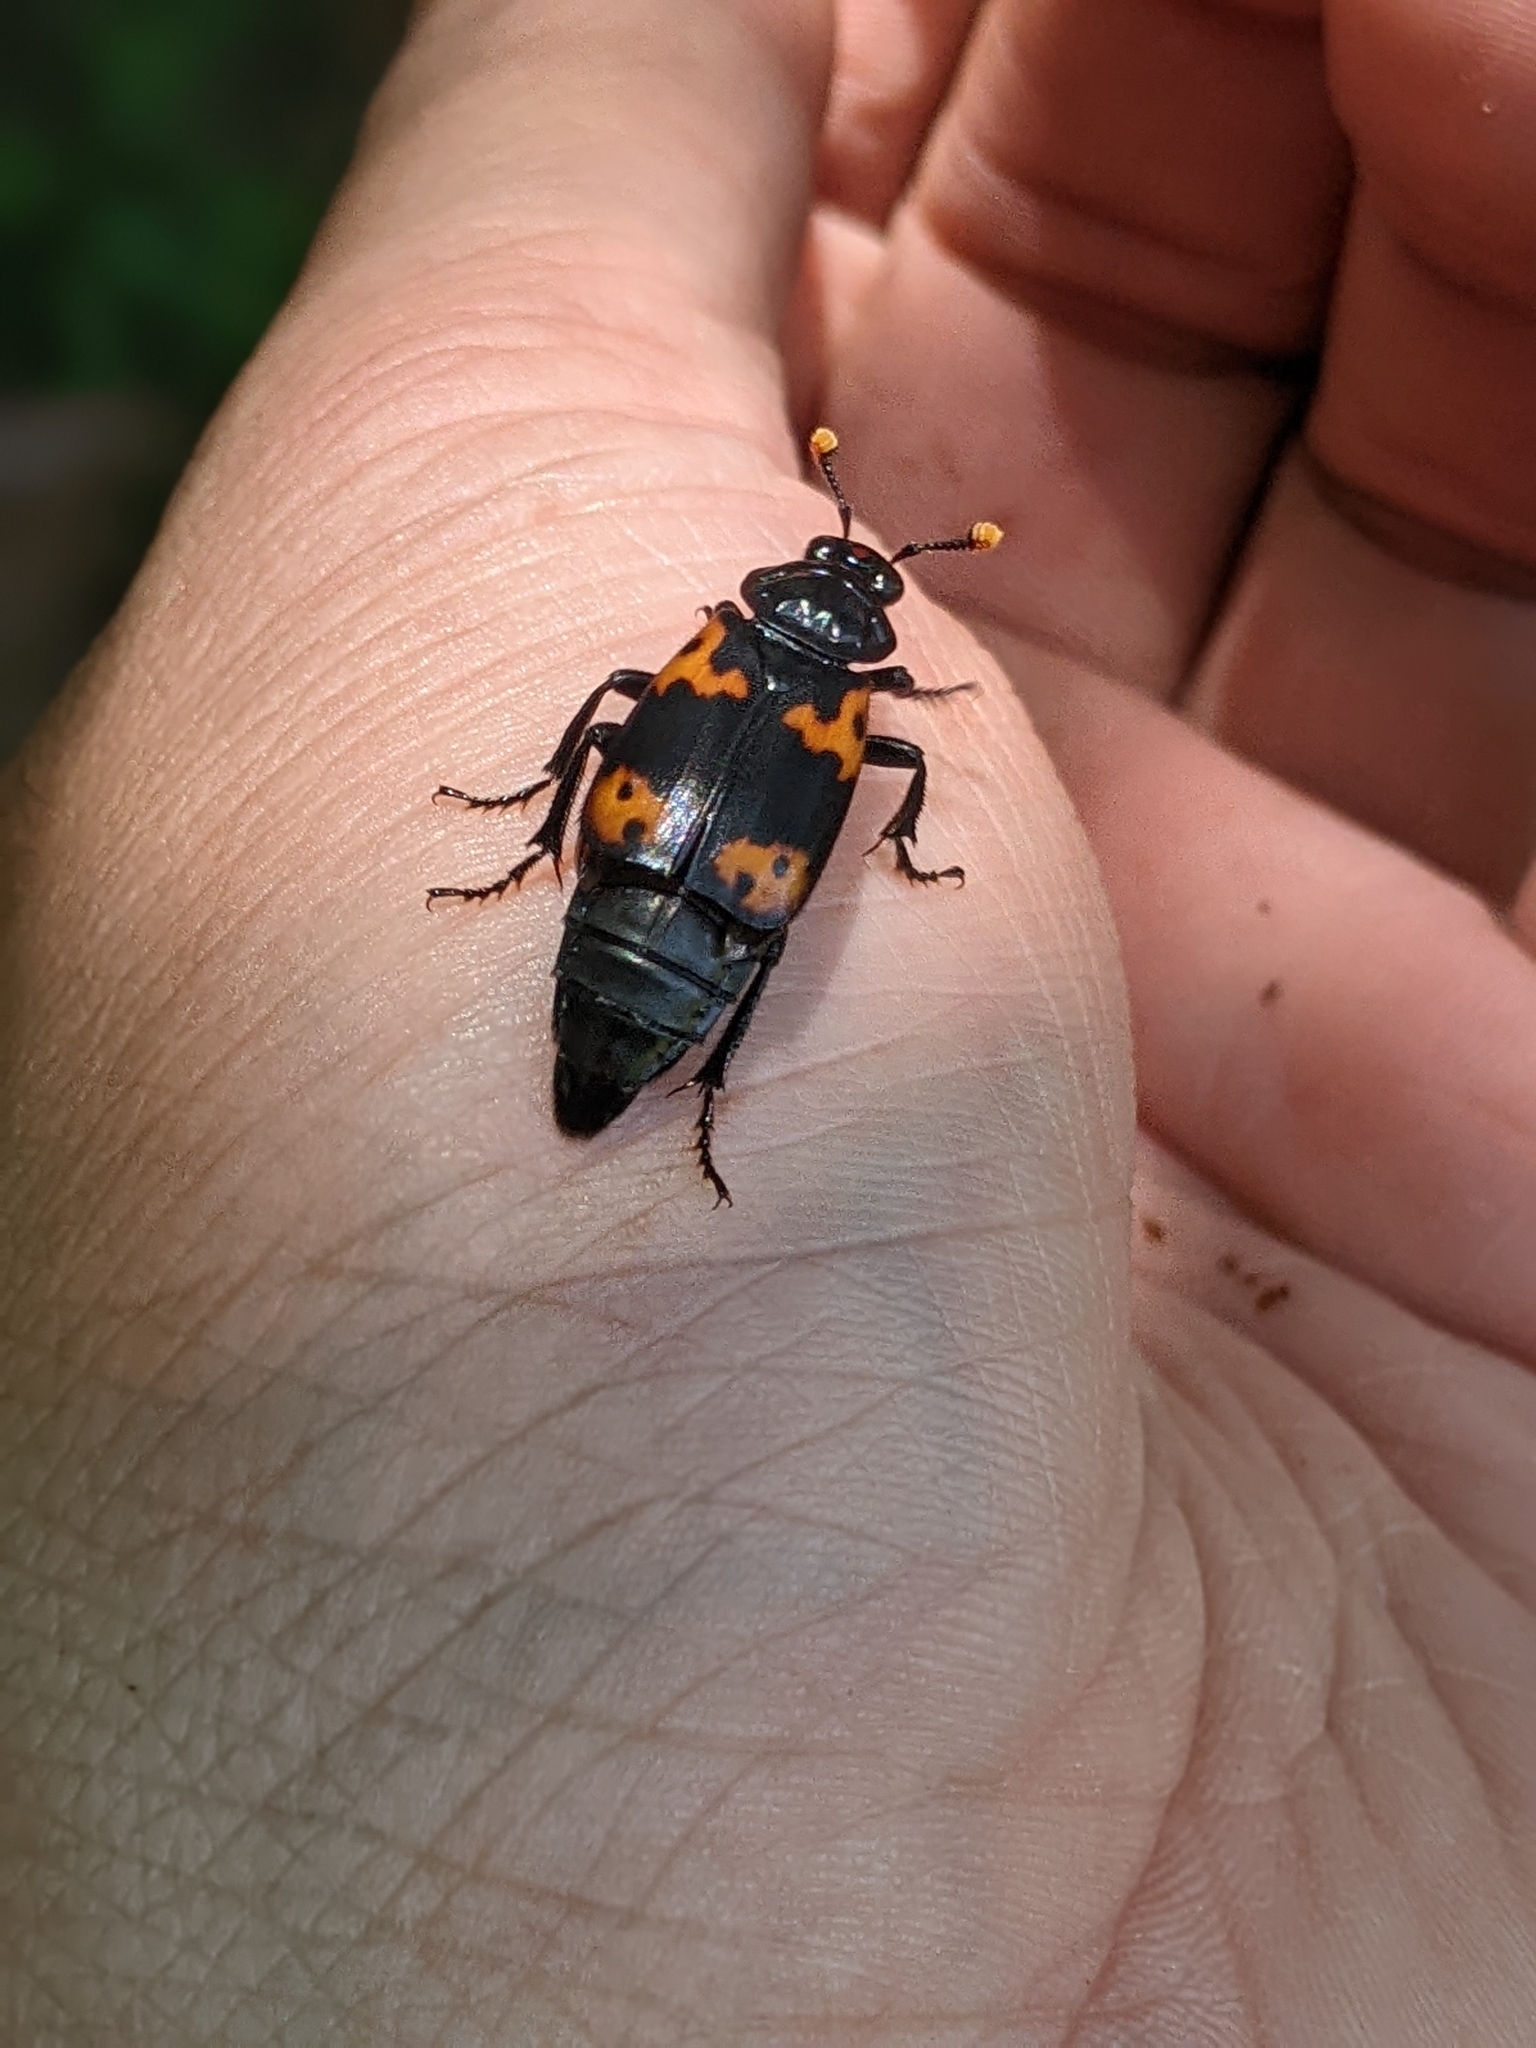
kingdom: Animalia
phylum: Arthropoda
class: Insecta
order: Coleoptera
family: Staphylinidae
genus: Nicrophorus
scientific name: Nicrophorus nepalensis
